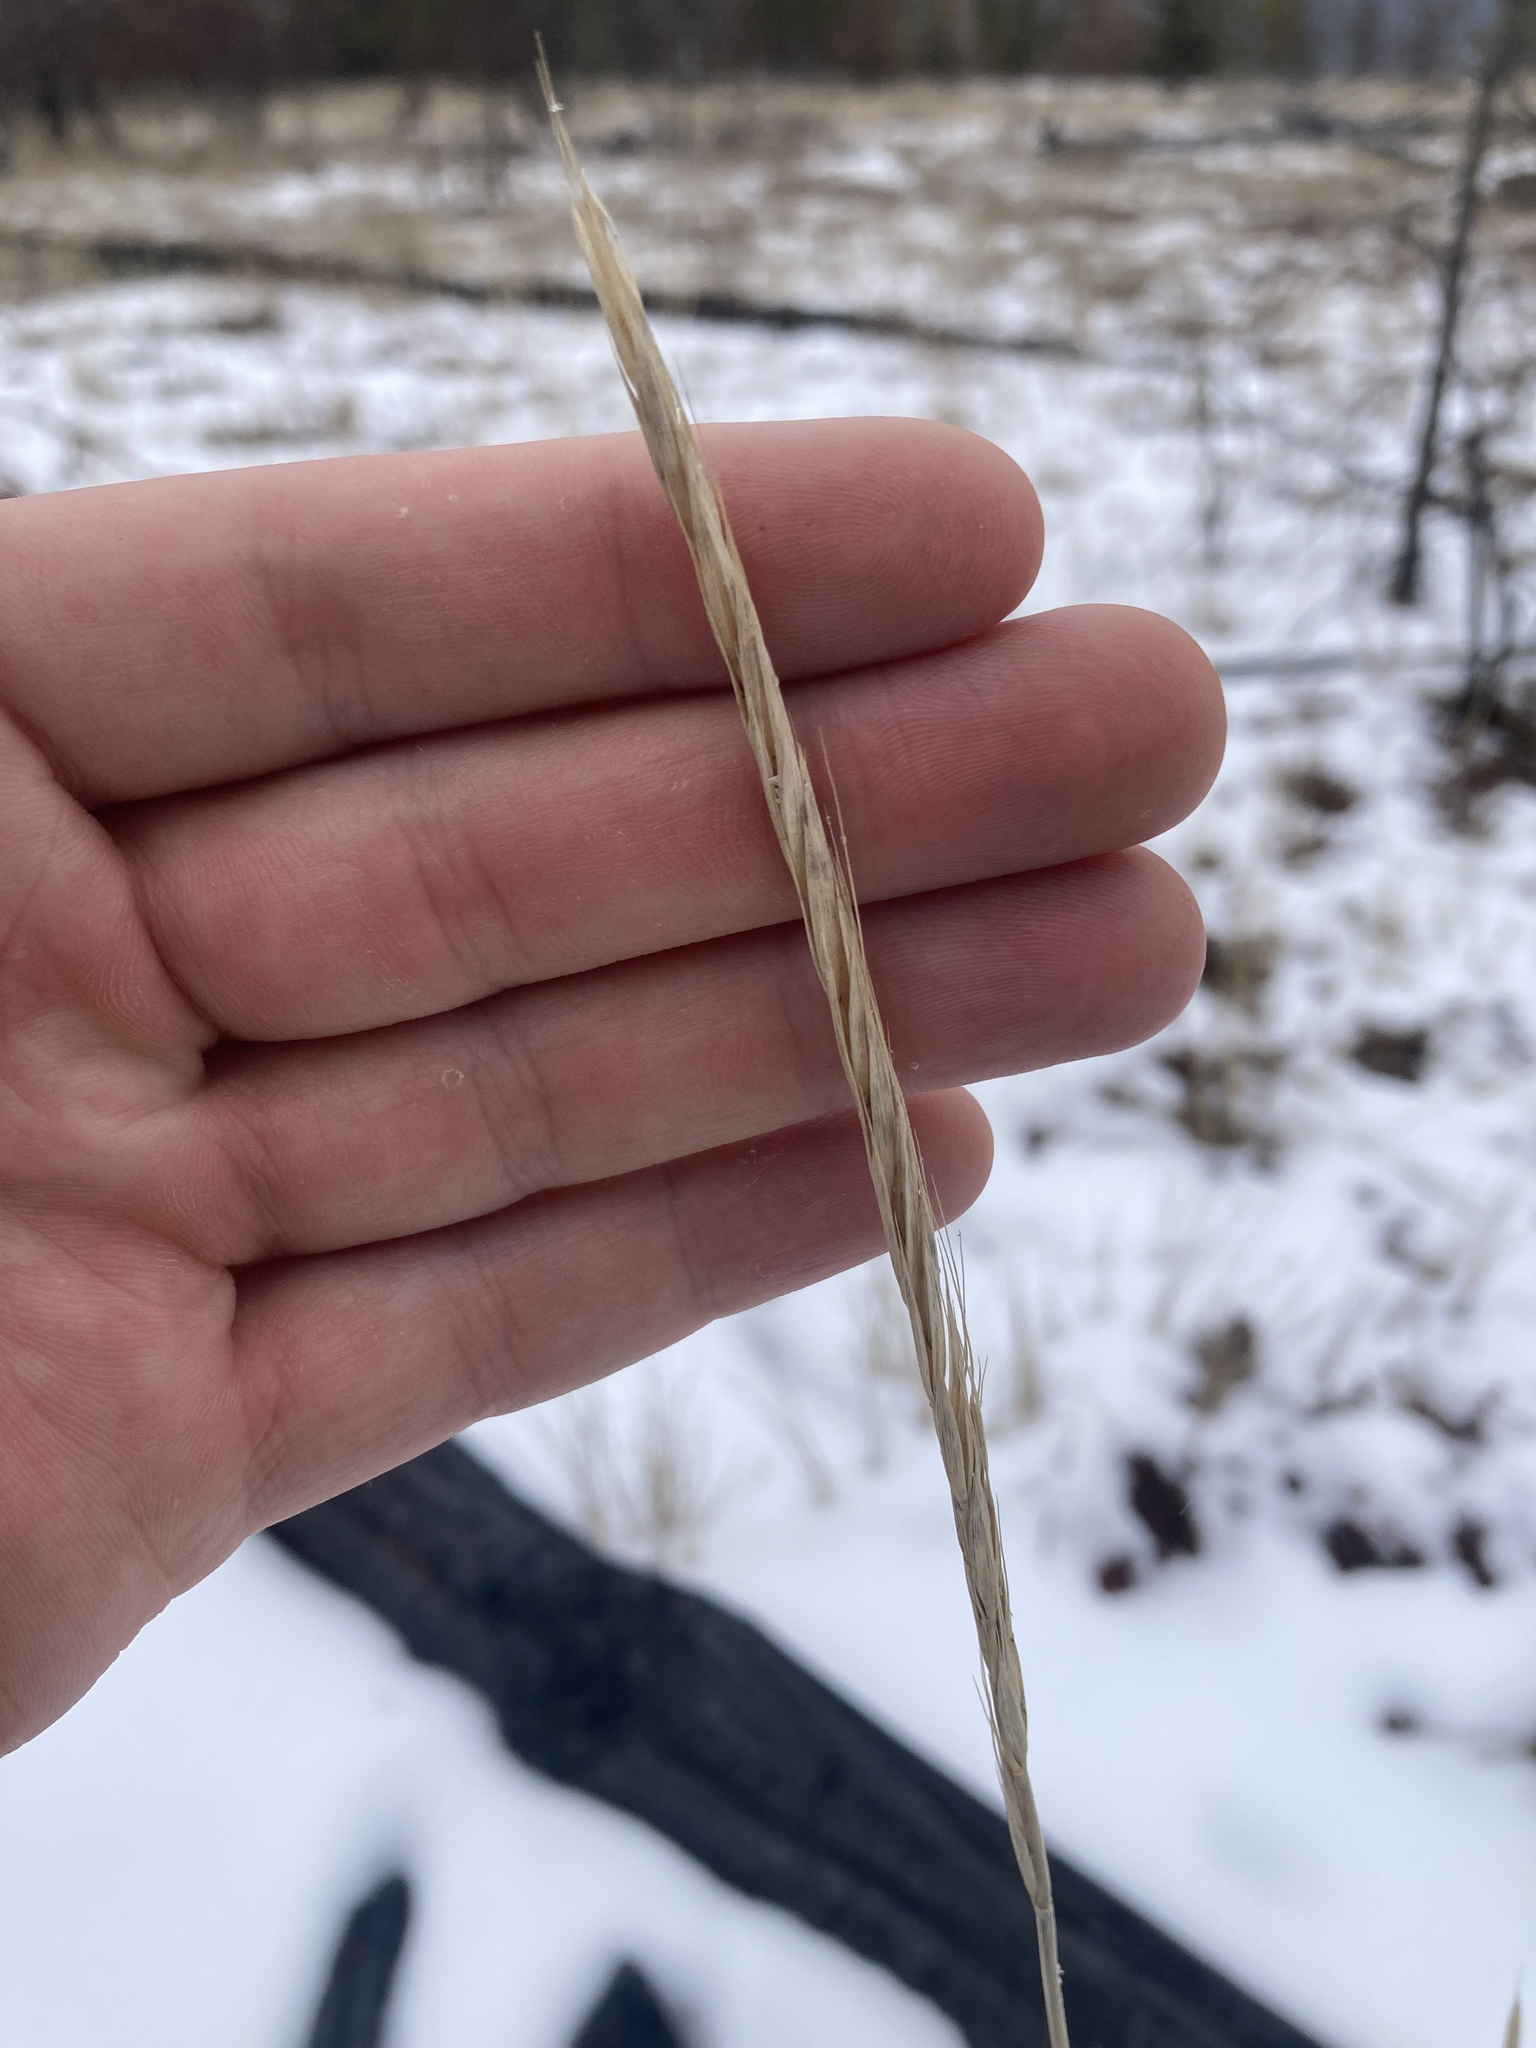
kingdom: Plantae
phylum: Tracheophyta
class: Liliopsida
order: Poales
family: Poaceae
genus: Elymus
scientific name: Elymus violaceus
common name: Arctic wheatgrass
